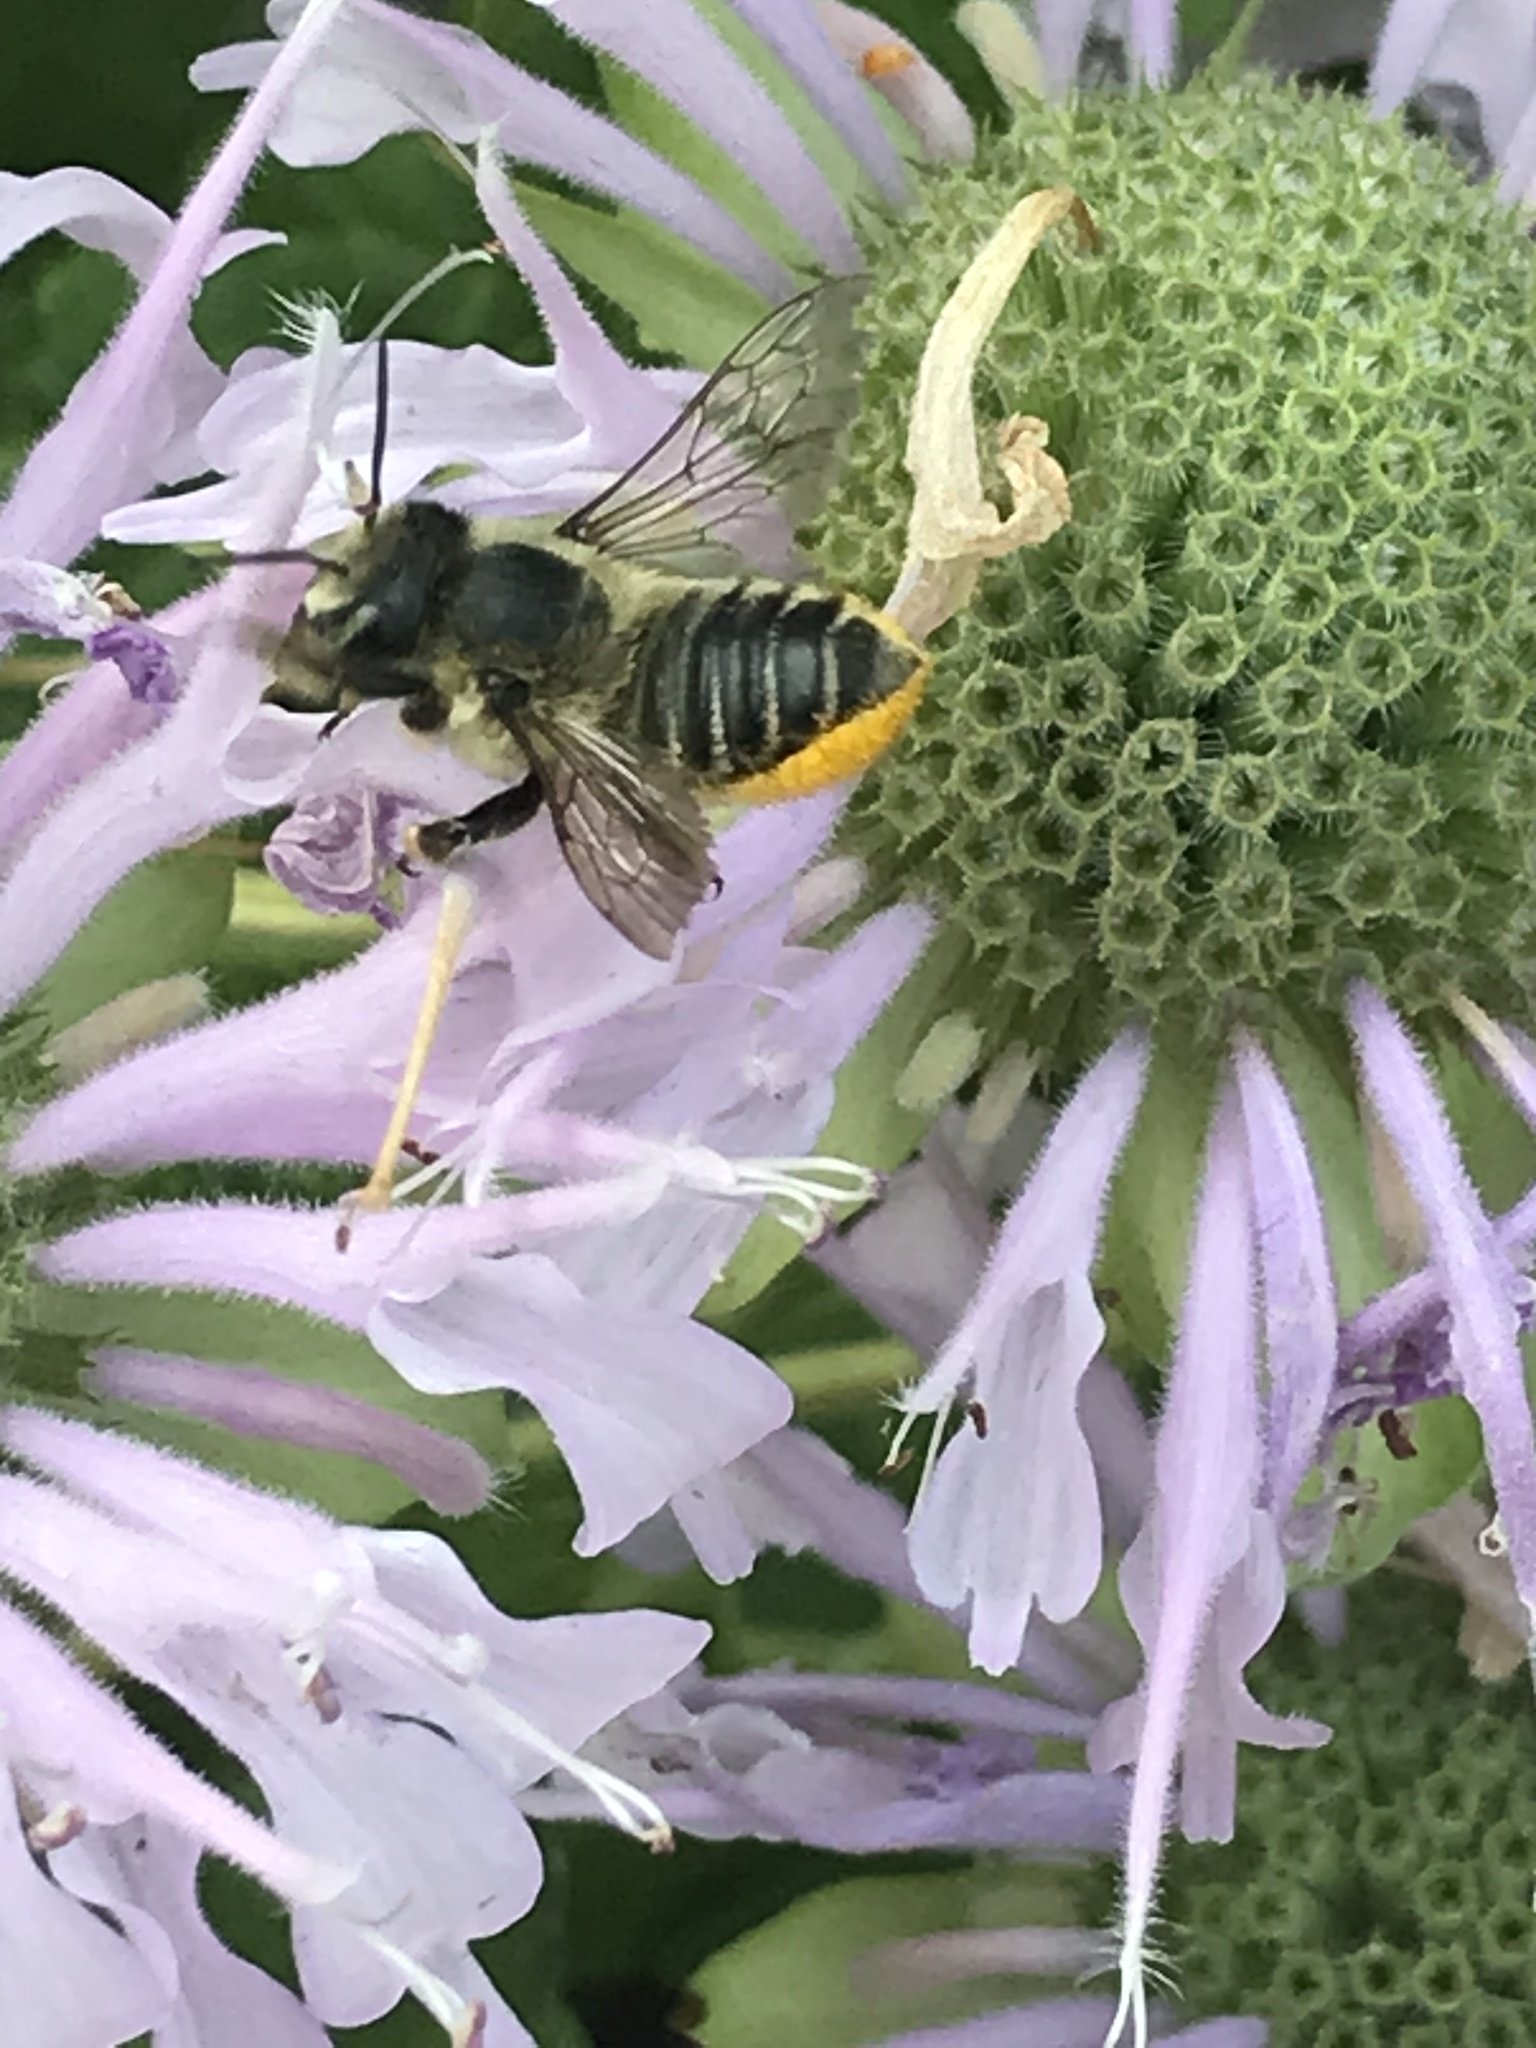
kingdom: Animalia
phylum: Arthropoda
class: Insecta
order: Hymenoptera
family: Megachilidae
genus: Megachile
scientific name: Megachile mendica
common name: Flat-tailed leafcutter
